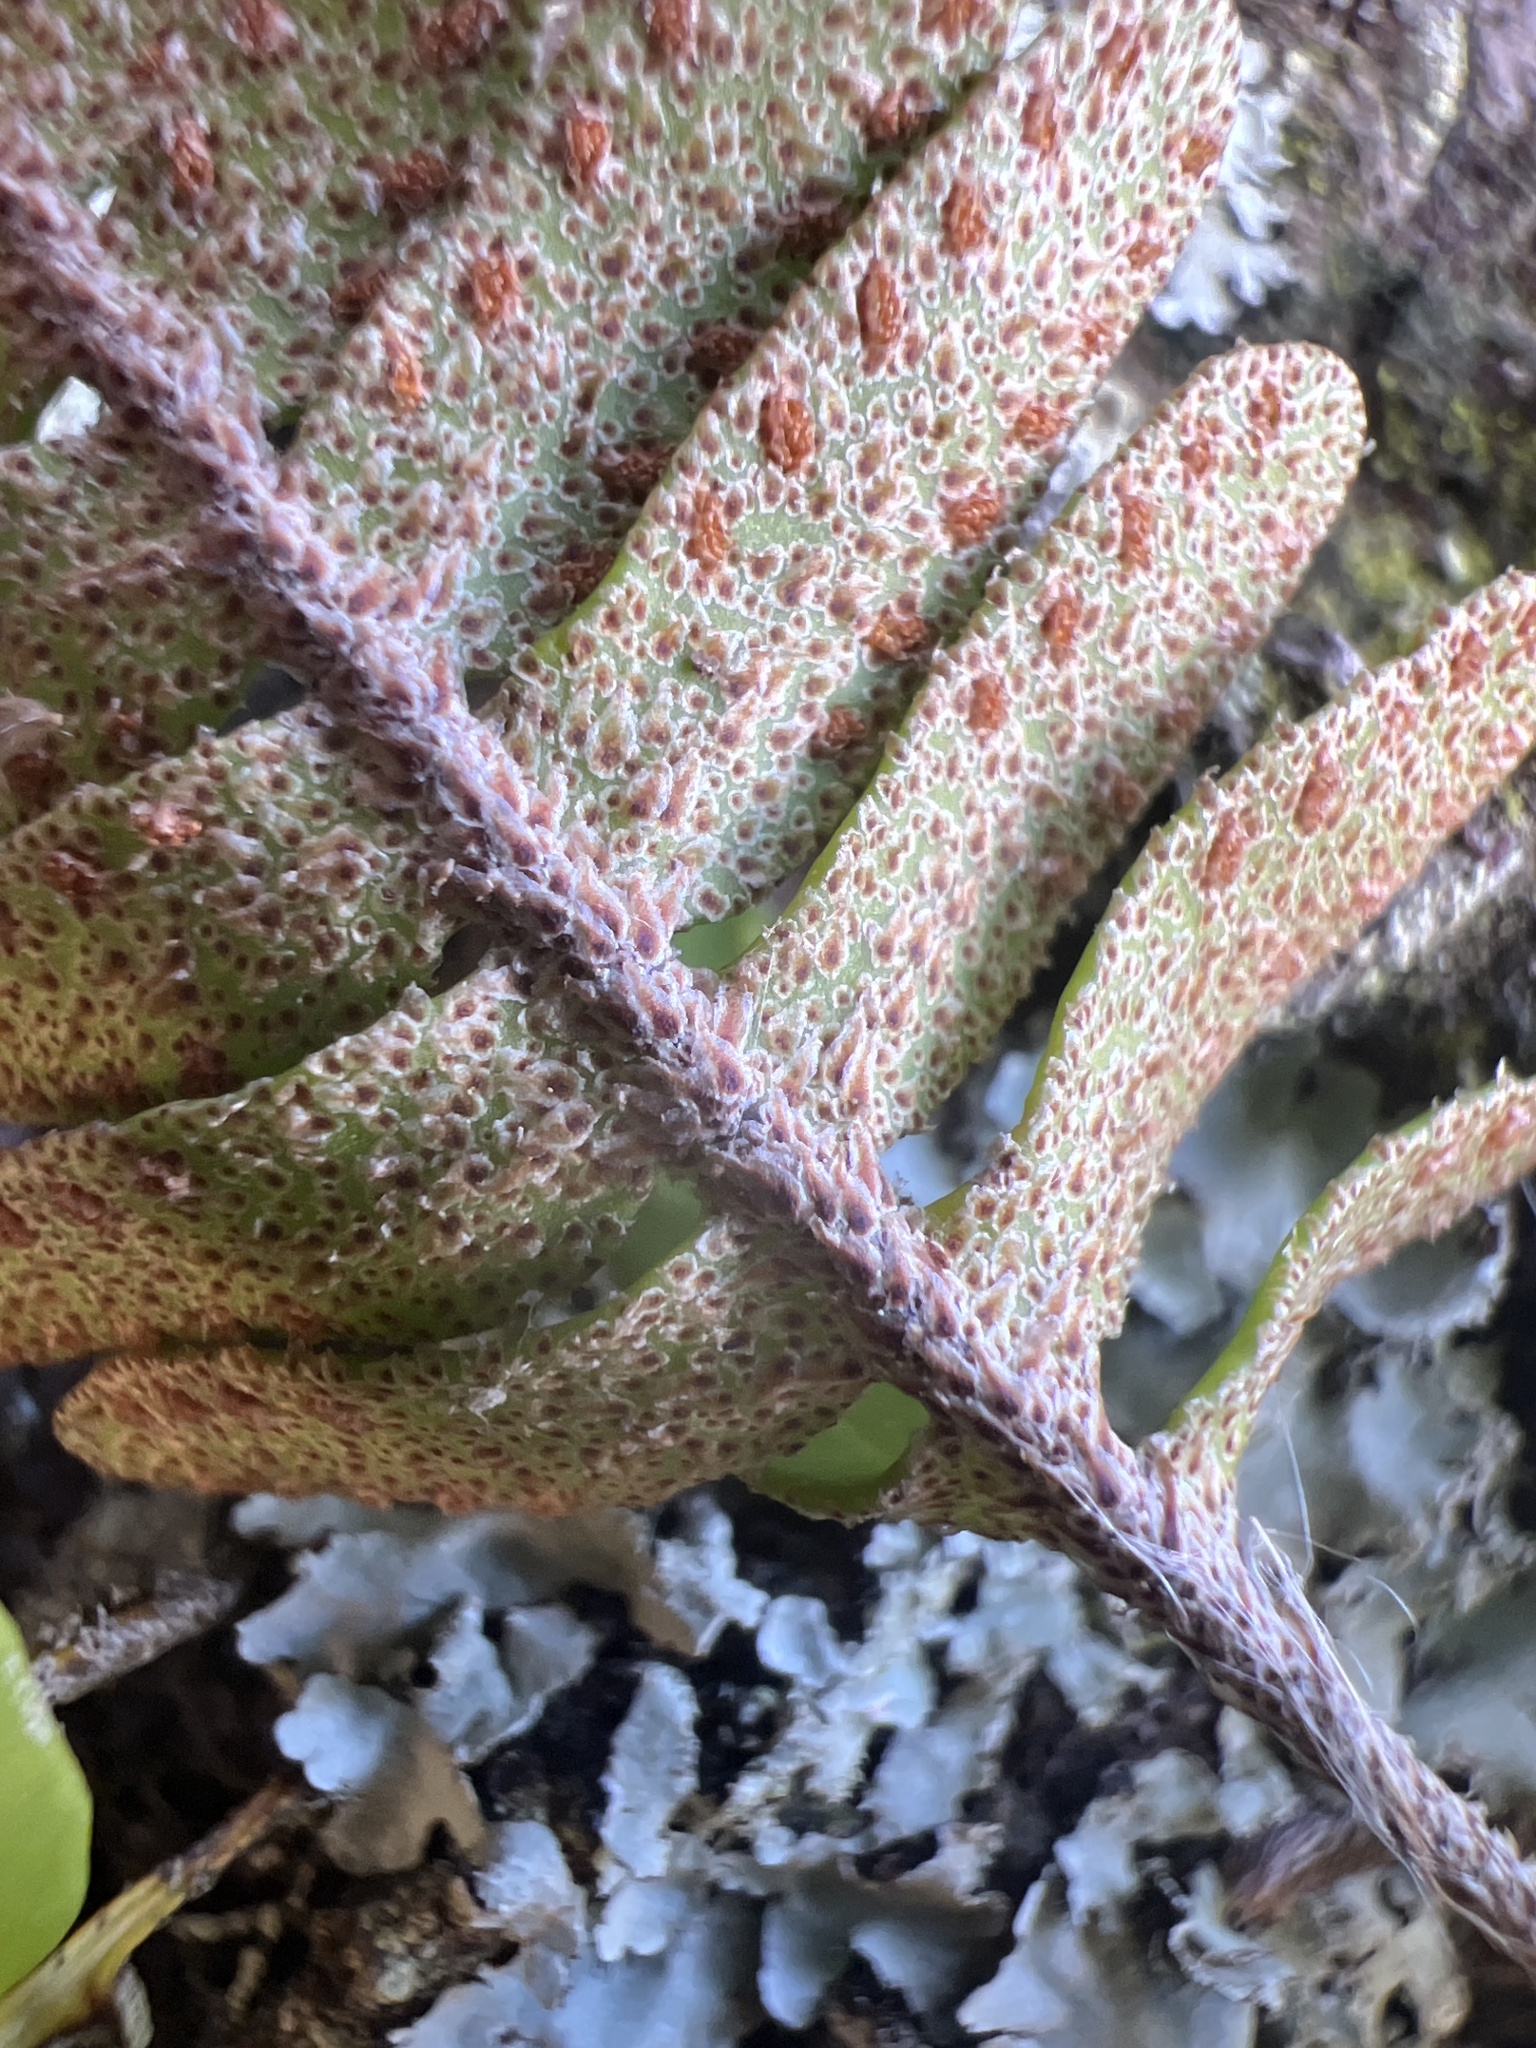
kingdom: Plantae
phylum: Tracheophyta
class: Polypodiopsida
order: Polypodiales
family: Polypodiaceae
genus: Pleopeltis
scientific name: Pleopeltis michauxiana
